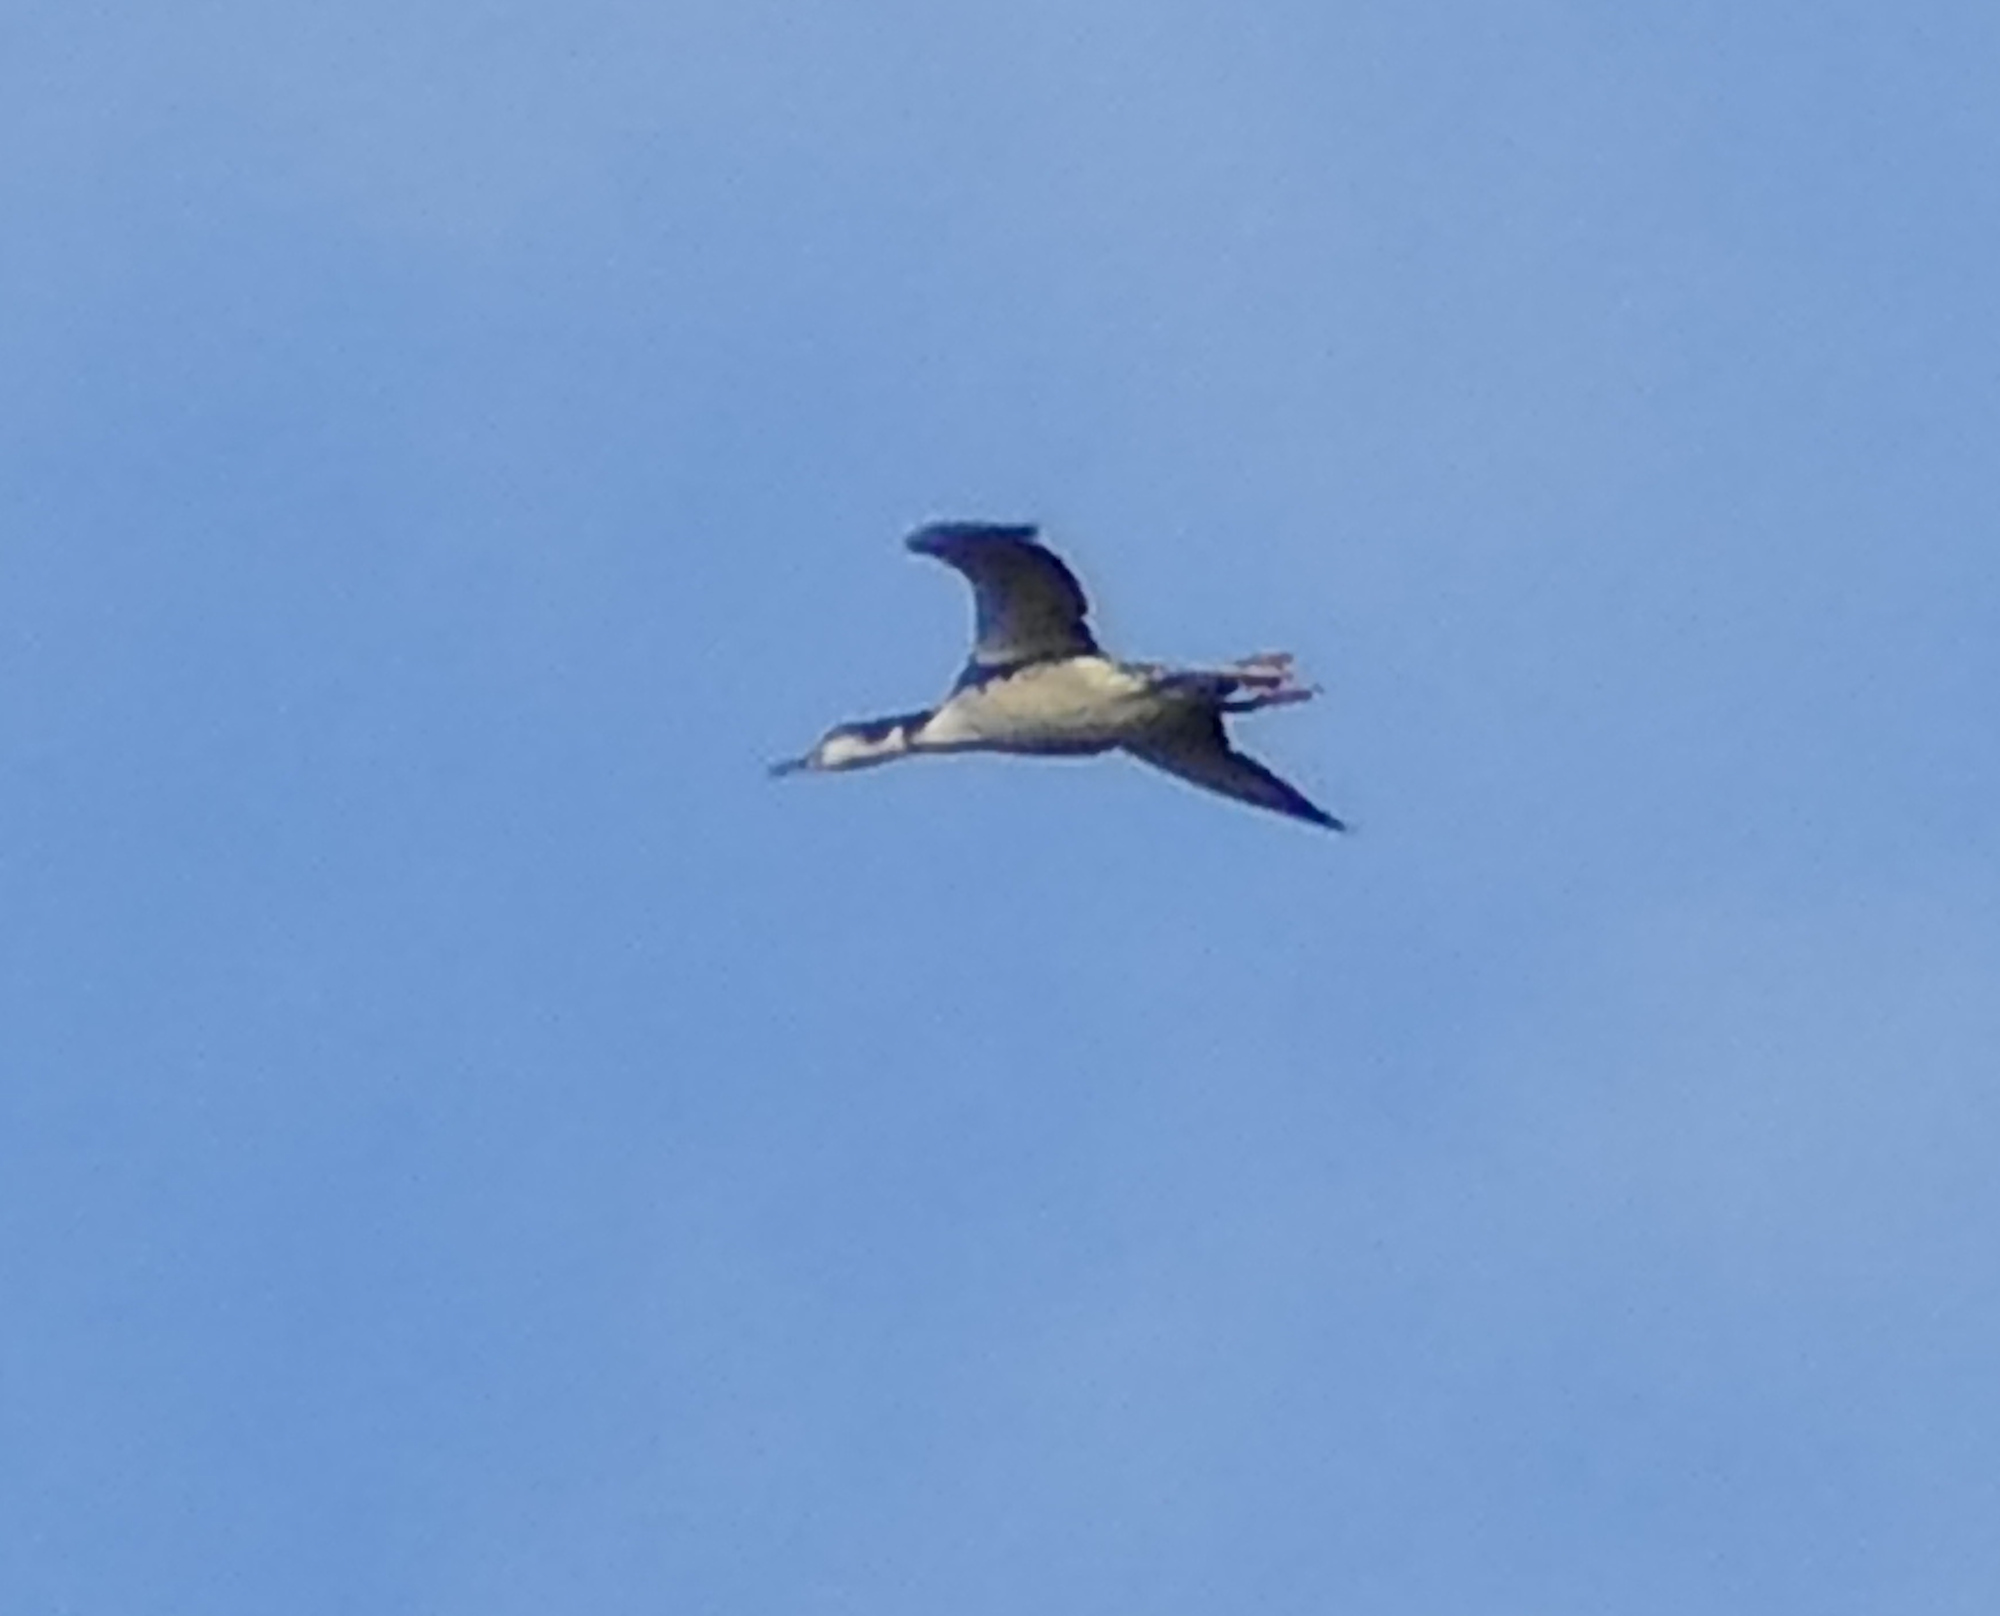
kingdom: Animalia
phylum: Chordata
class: Aves
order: Gaviiformes
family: Gaviidae
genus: Gavia
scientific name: Gavia immer
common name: Common loon
